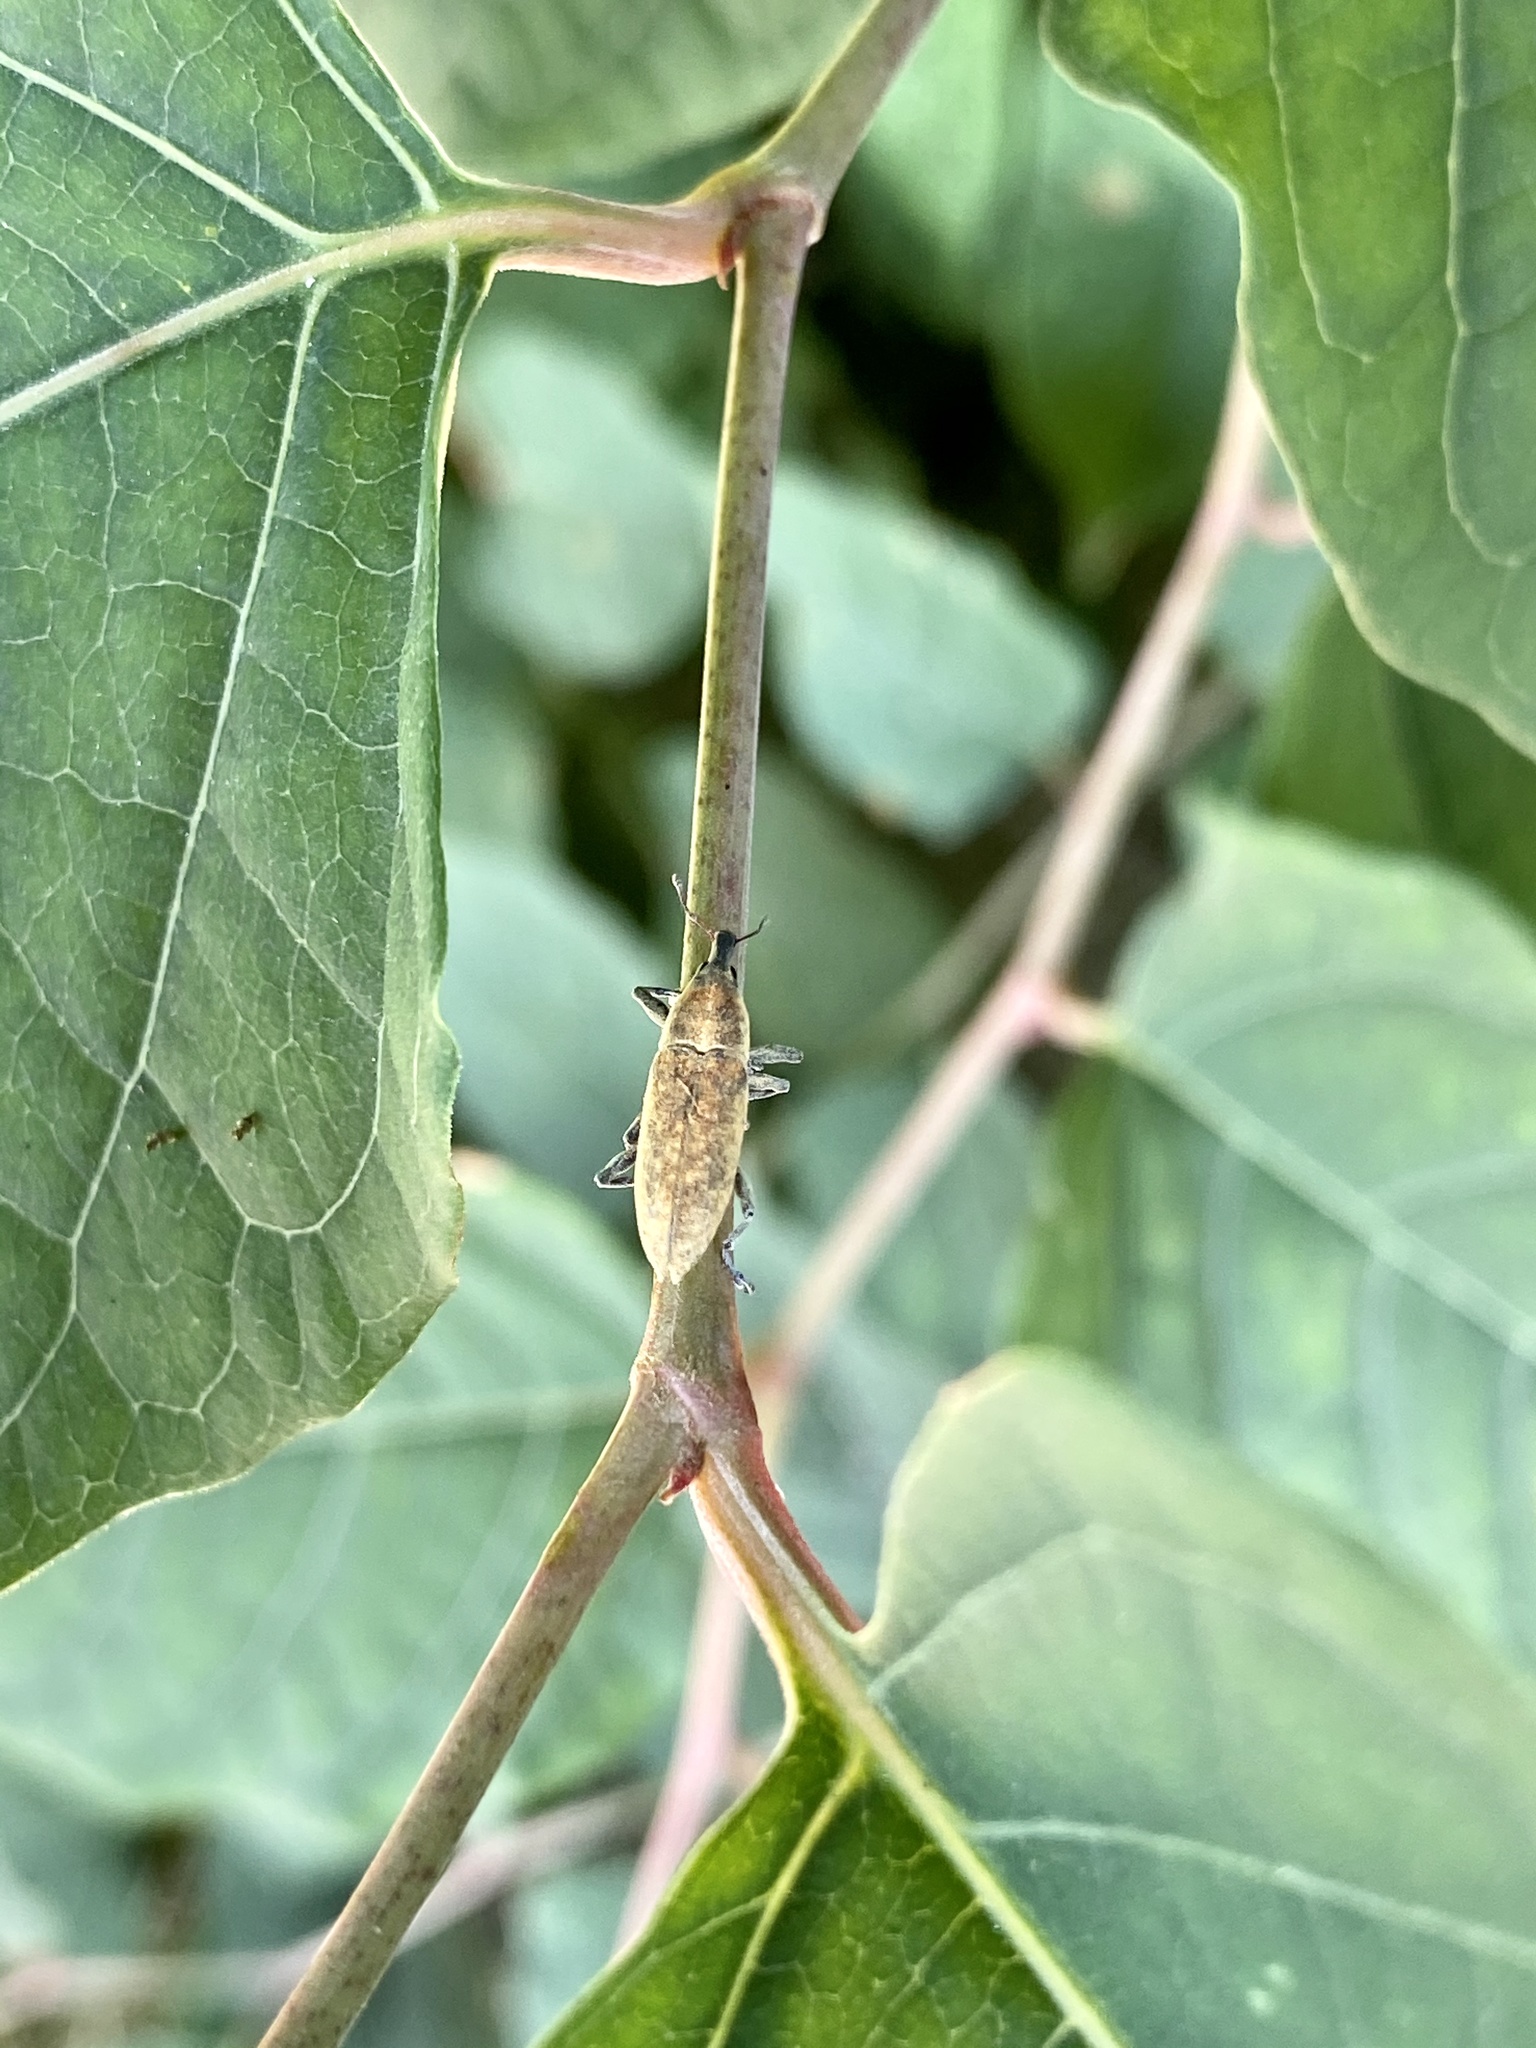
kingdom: Animalia
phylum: Arthropoda
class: Insecta
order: Coleoptera
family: Curculionidae
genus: Lixus
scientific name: Lixus impressiventris
